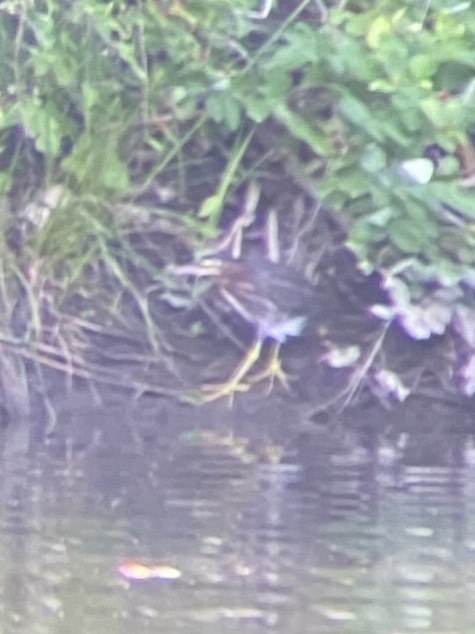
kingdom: Animalia
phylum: Chordata
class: Aves
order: Pelecaniformes
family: Ardeidae
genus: Butorides
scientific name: Butorides virescens
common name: Green heron
